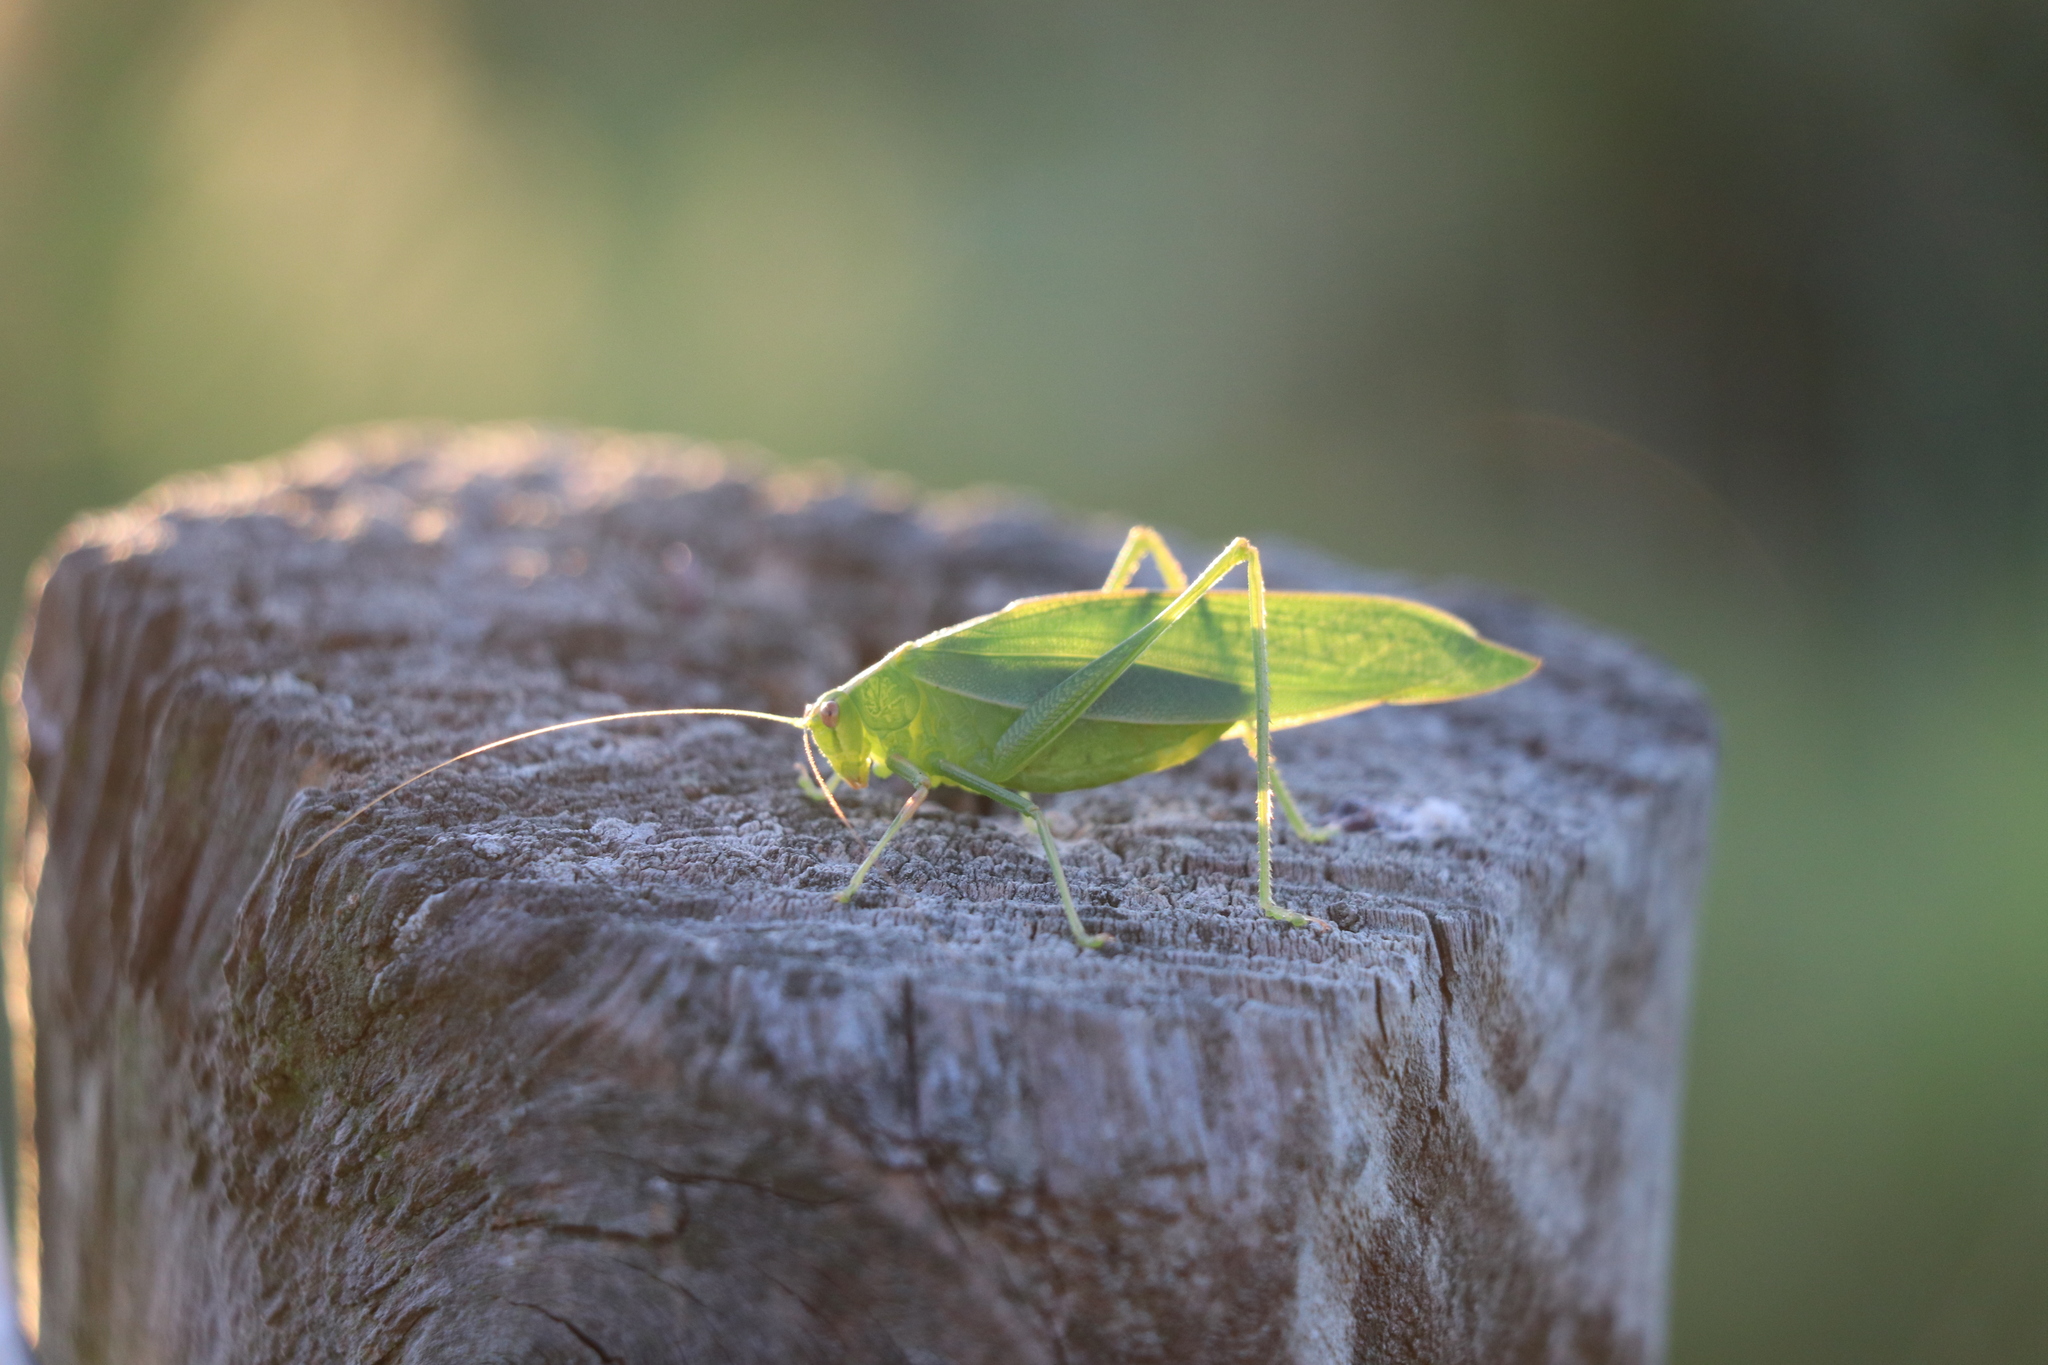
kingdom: Animalia
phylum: Arthropoda
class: Insecta
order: Orthoptera
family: Tettigoniidae
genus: Caedicia
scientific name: Caedicia simplex
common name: Common garden katydid
